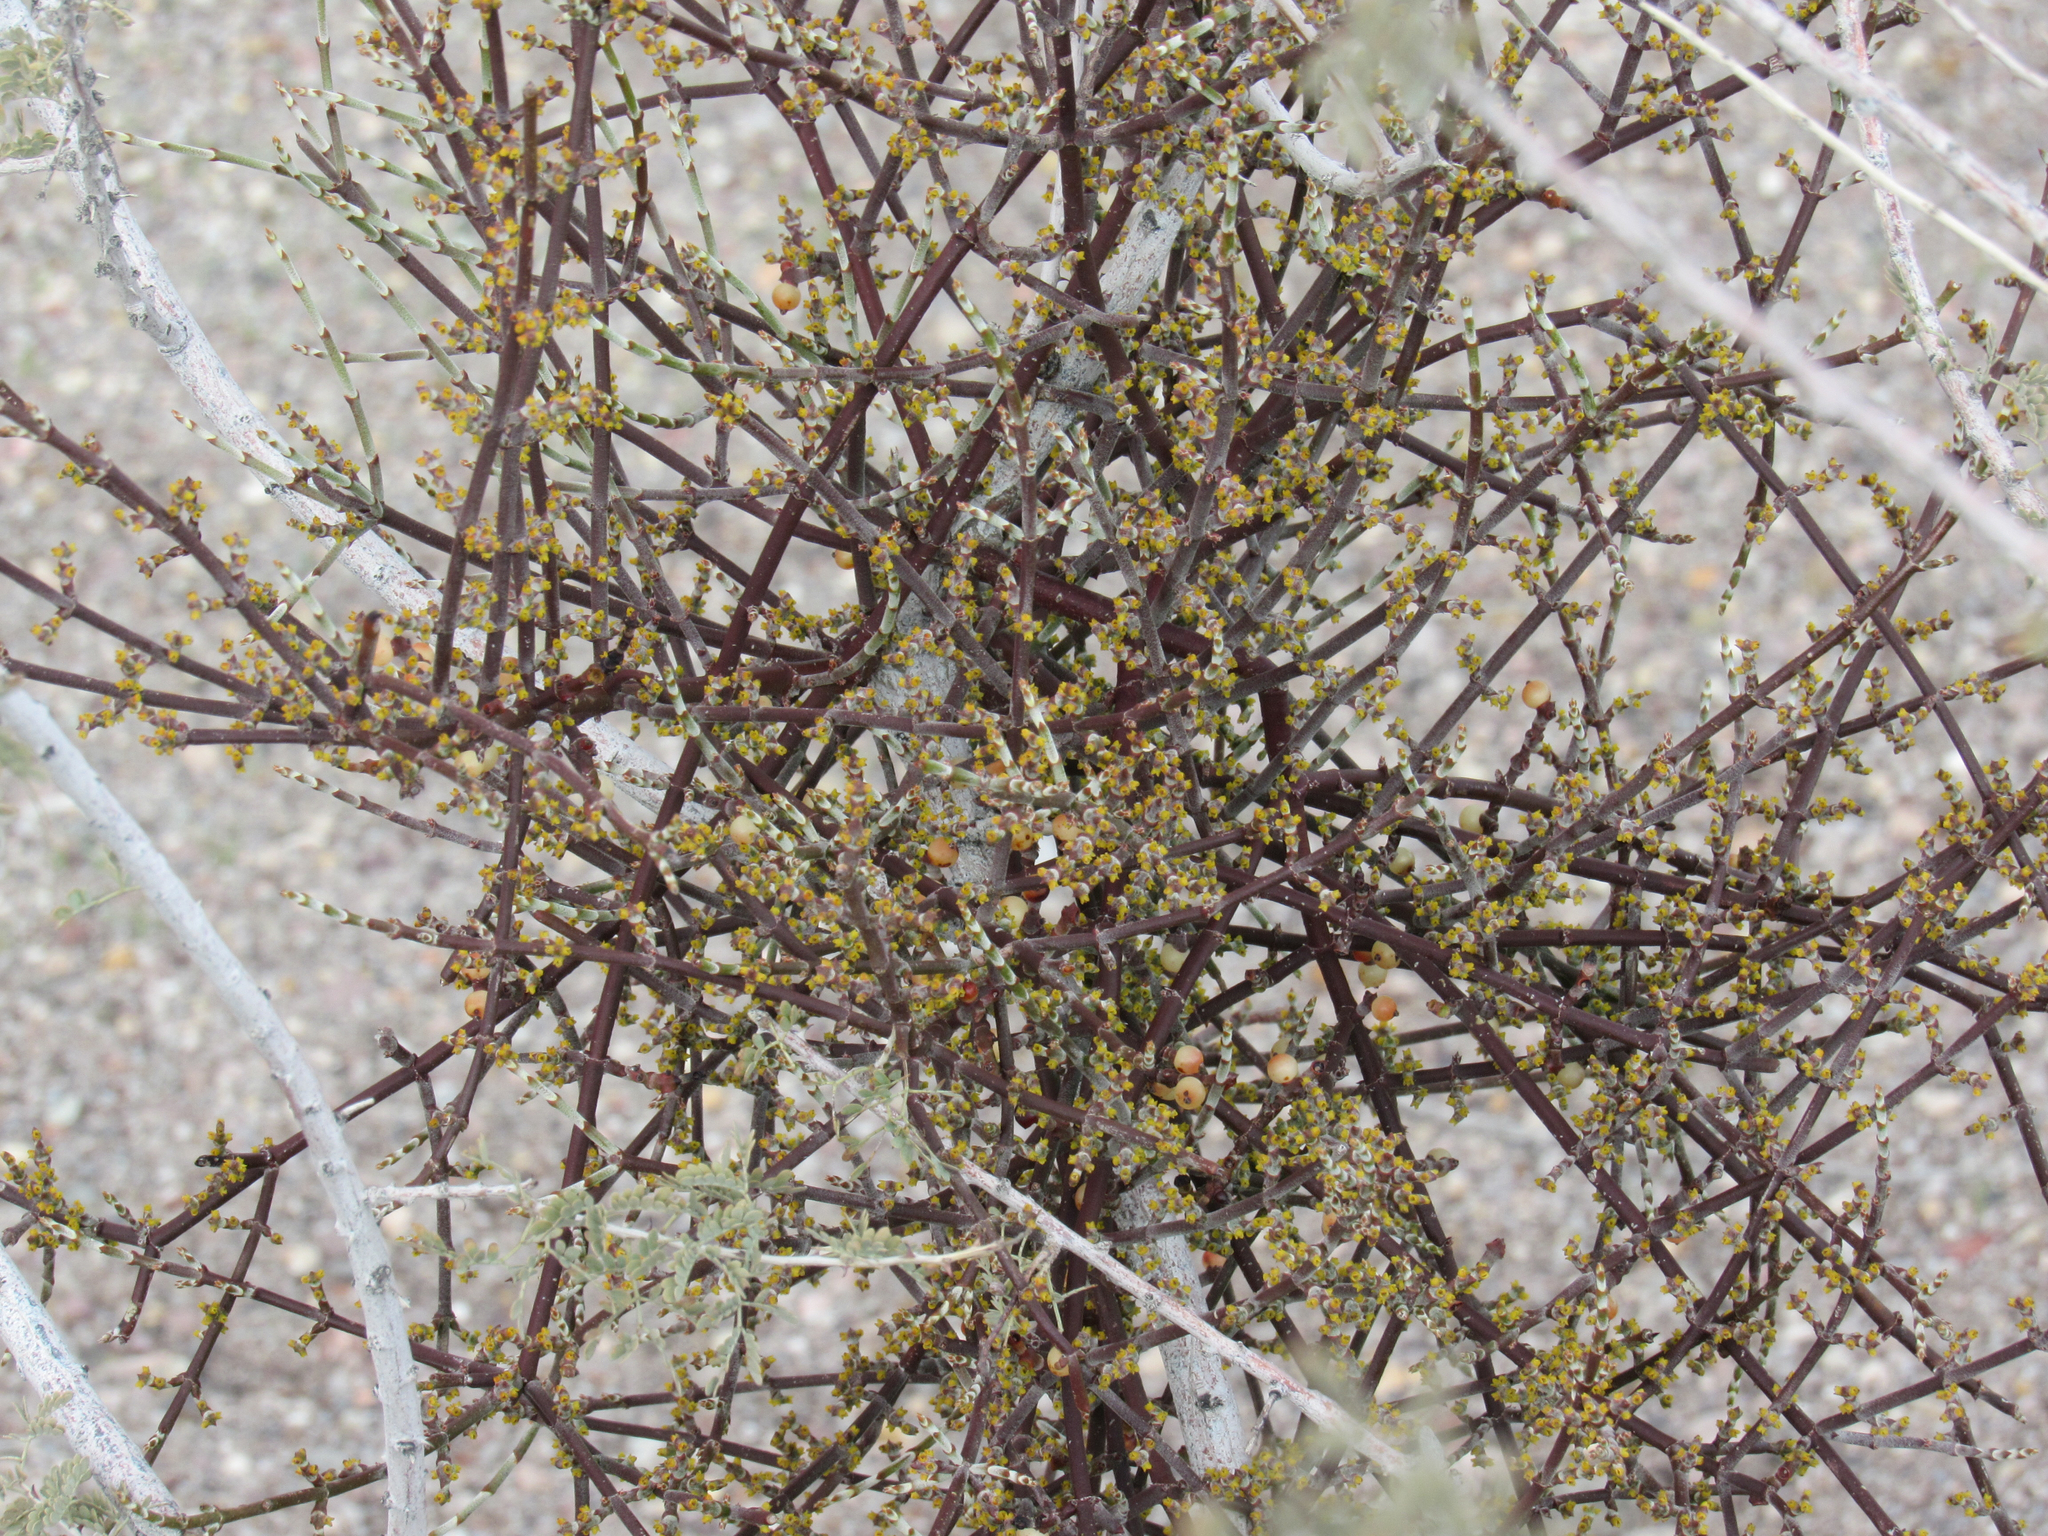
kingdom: Plantae
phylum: Tracheophyta
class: Magnoliopsida
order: Santalales
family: Viscaceae
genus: Phoradendron
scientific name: Phoradendron californicum
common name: Acacia mistletoe
